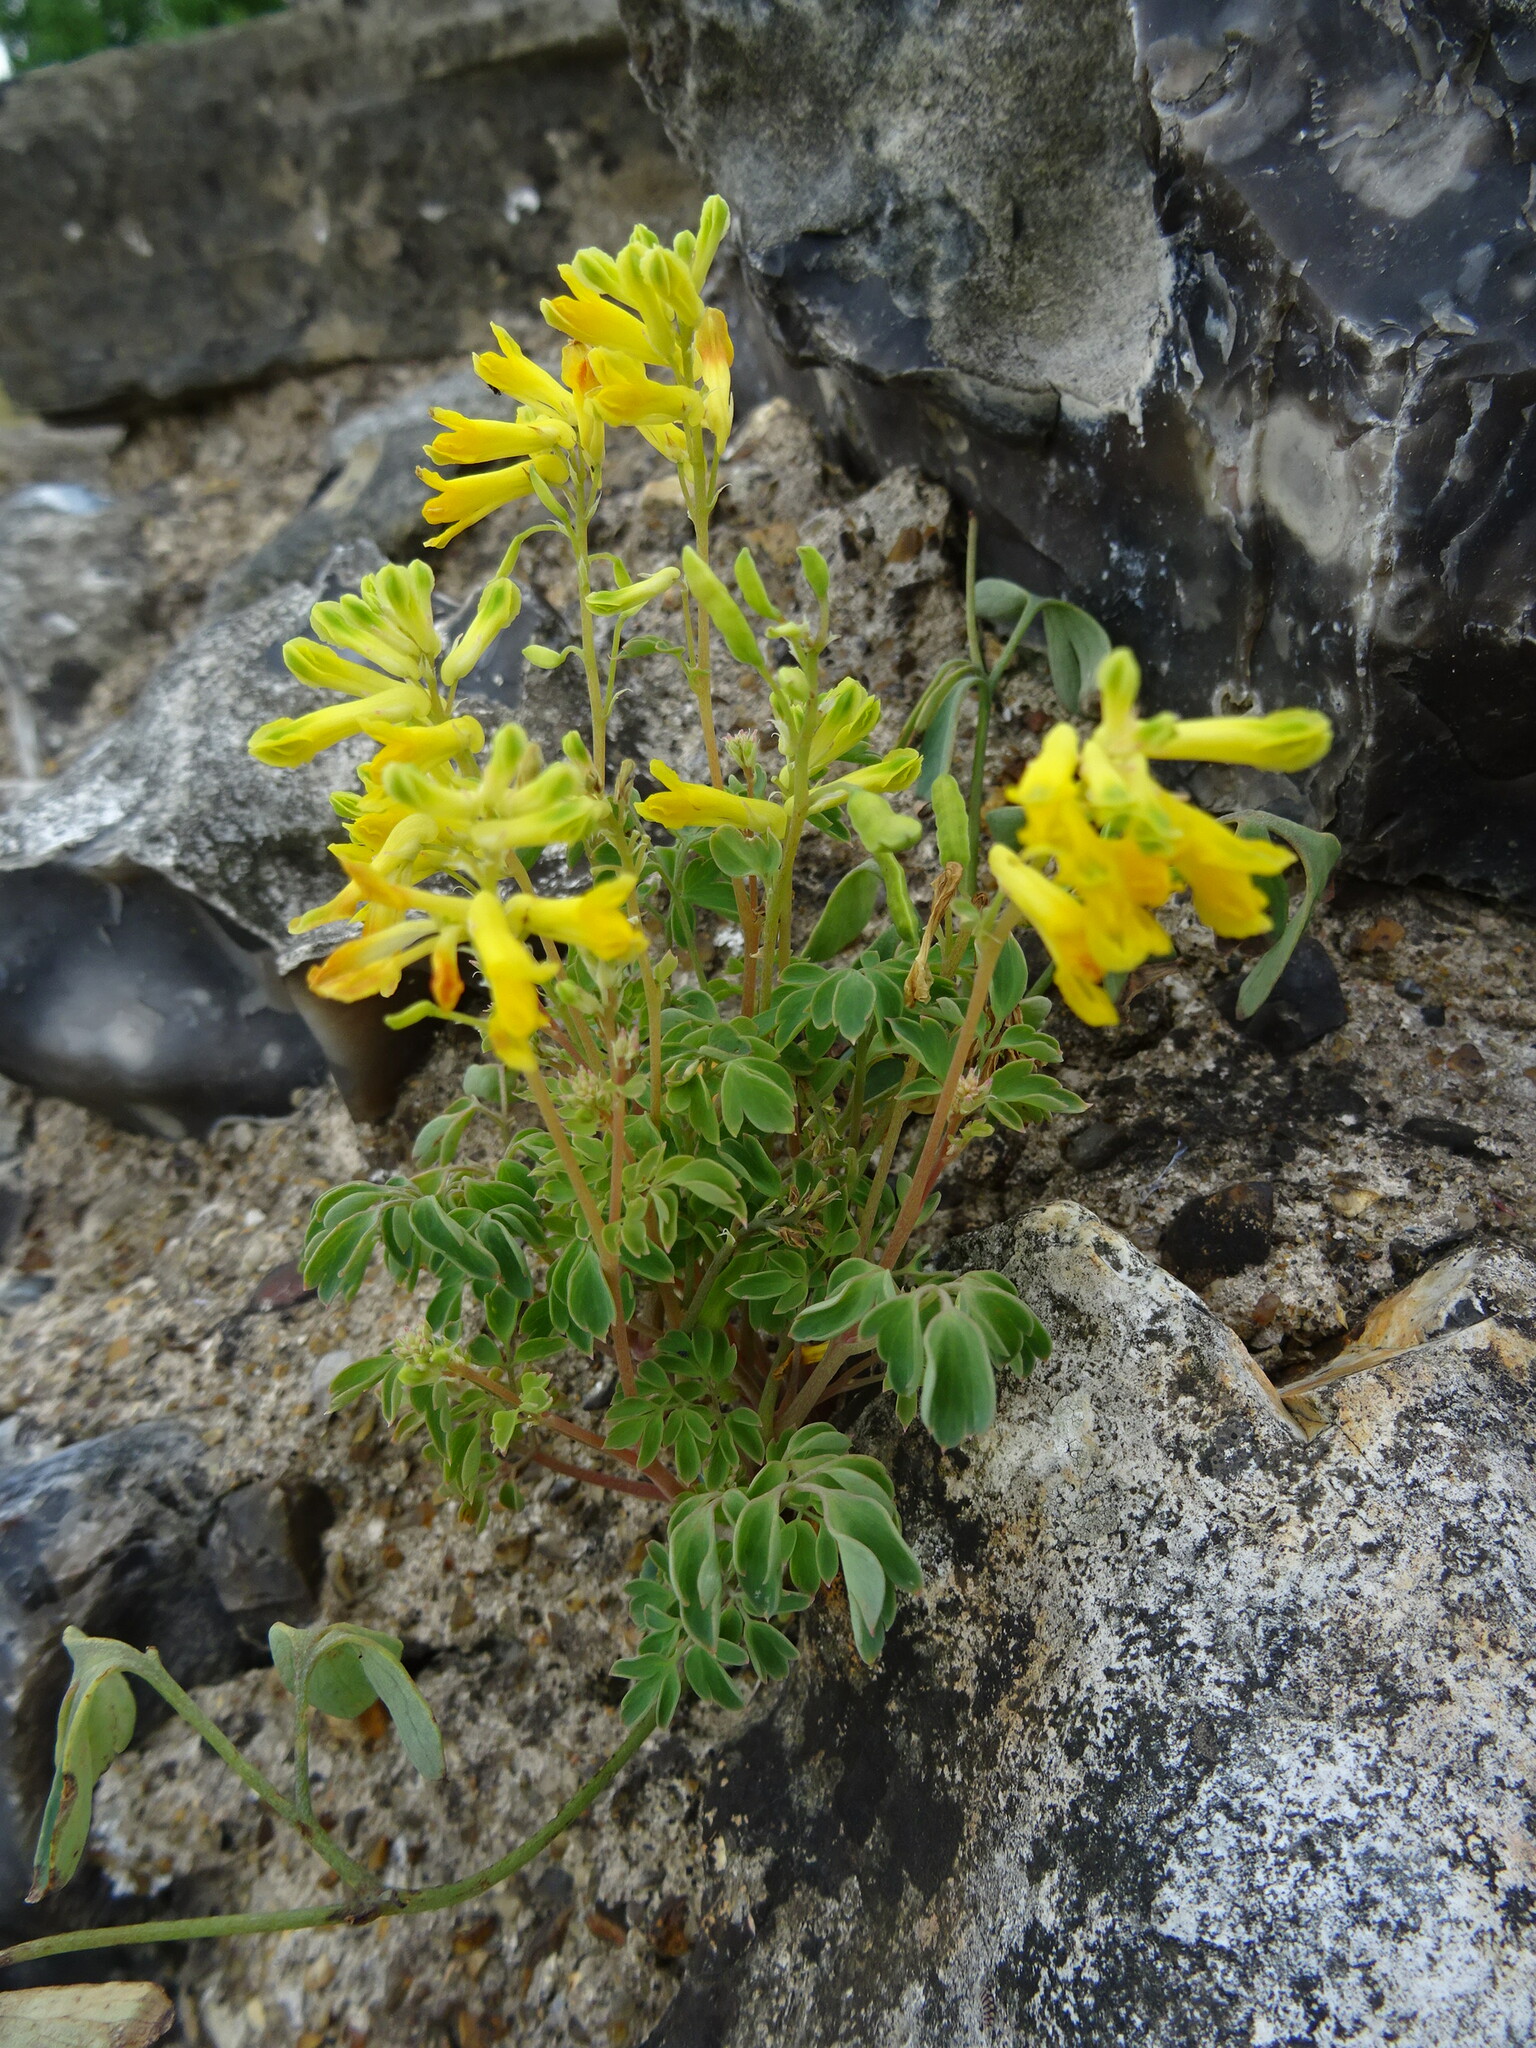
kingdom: Plantae
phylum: Tracheophyta
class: Magnoliopsida
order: Ranunculales
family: Papaveraceae
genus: Pseudofumaria
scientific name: Pseudofumaria lutea
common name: Yellow corydalis
